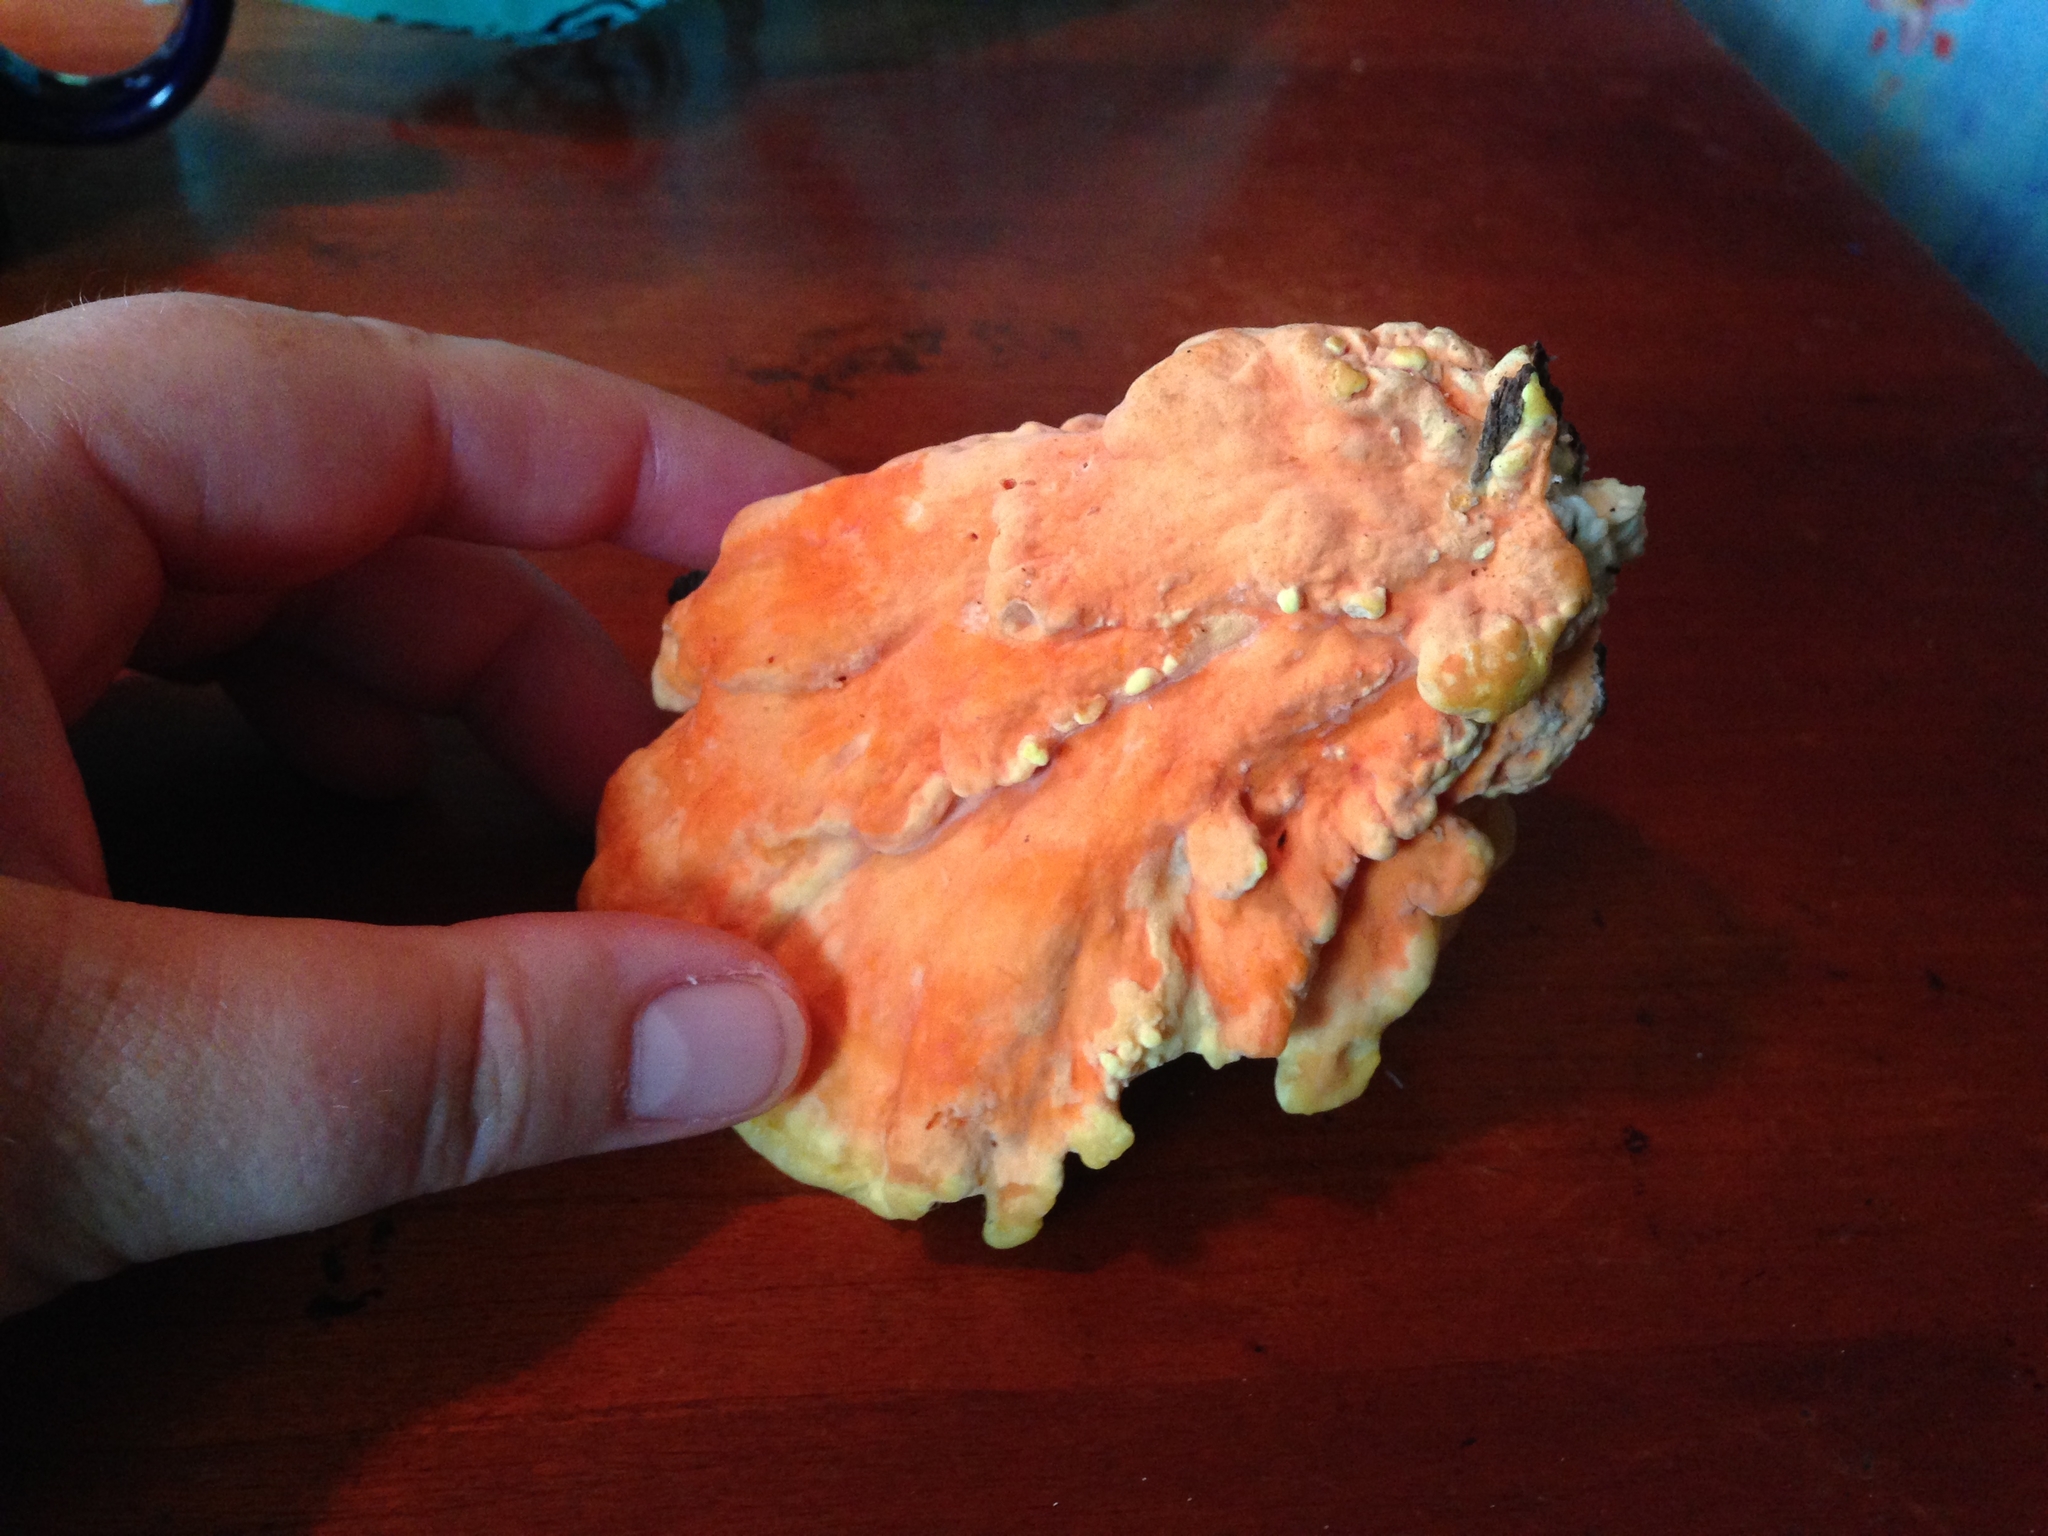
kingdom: Fungi
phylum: Basidiomycota
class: Agaricomycetes
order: Polyporales
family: Laetiporaceae
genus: Laetiporus
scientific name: Laetiporus sulphureus
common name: Chicken of the woods
